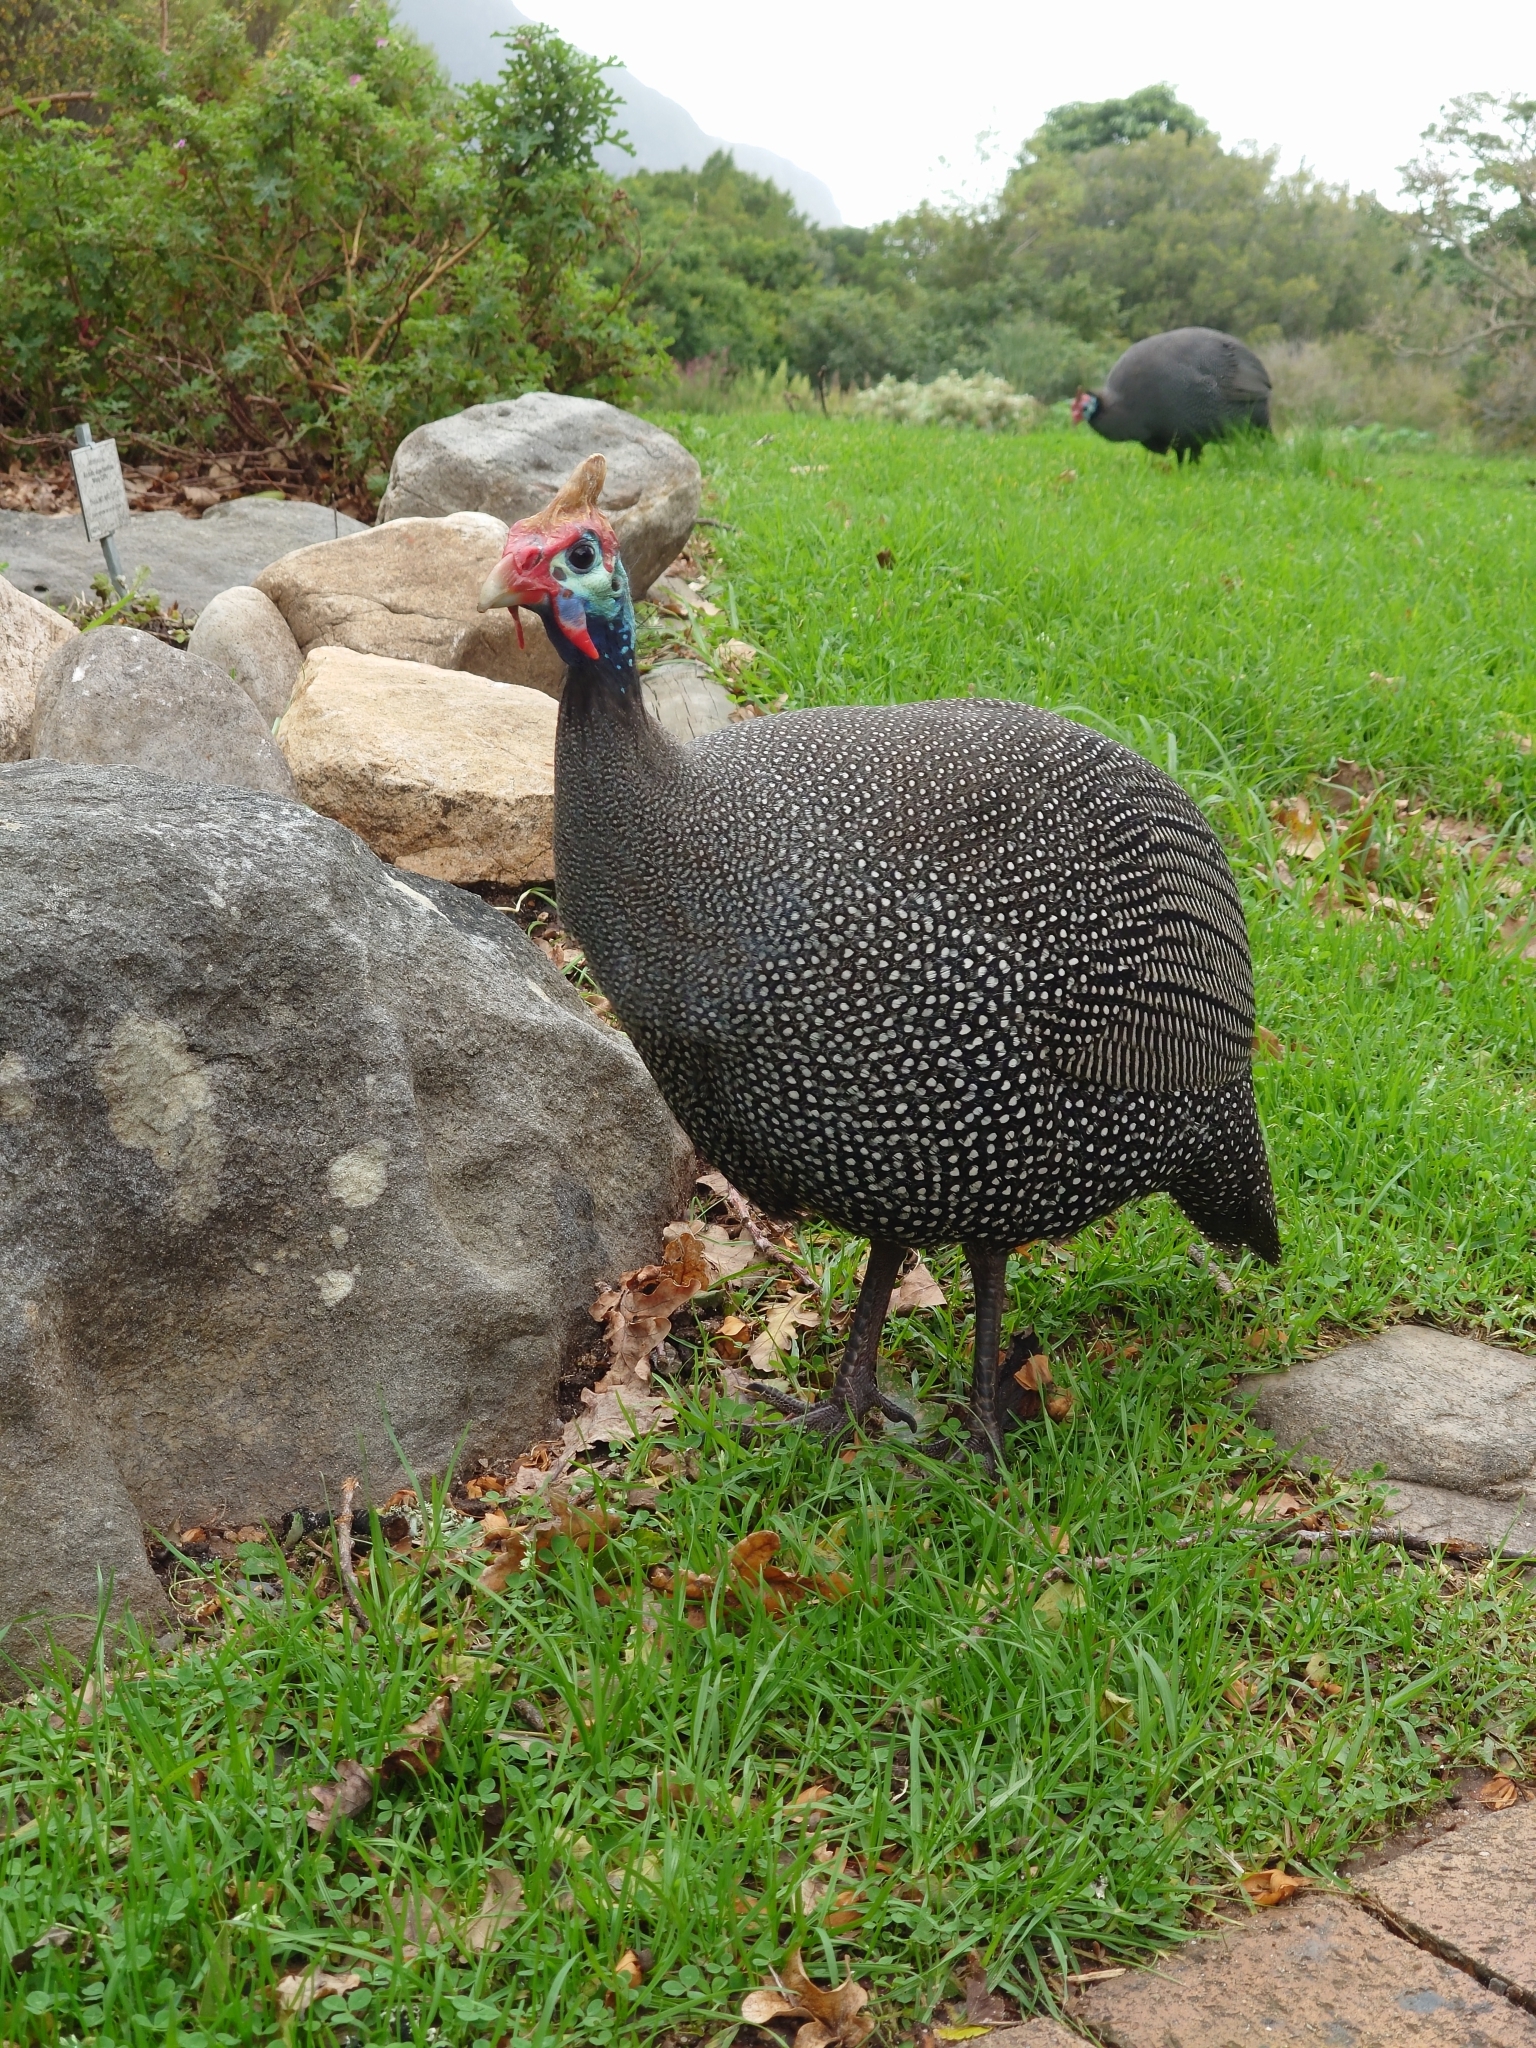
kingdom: Animalia
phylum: Chordata
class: Aves
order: Galliformes
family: Numididae
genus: Numida
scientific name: Numida meleagris
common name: Helmeted guineafowl
